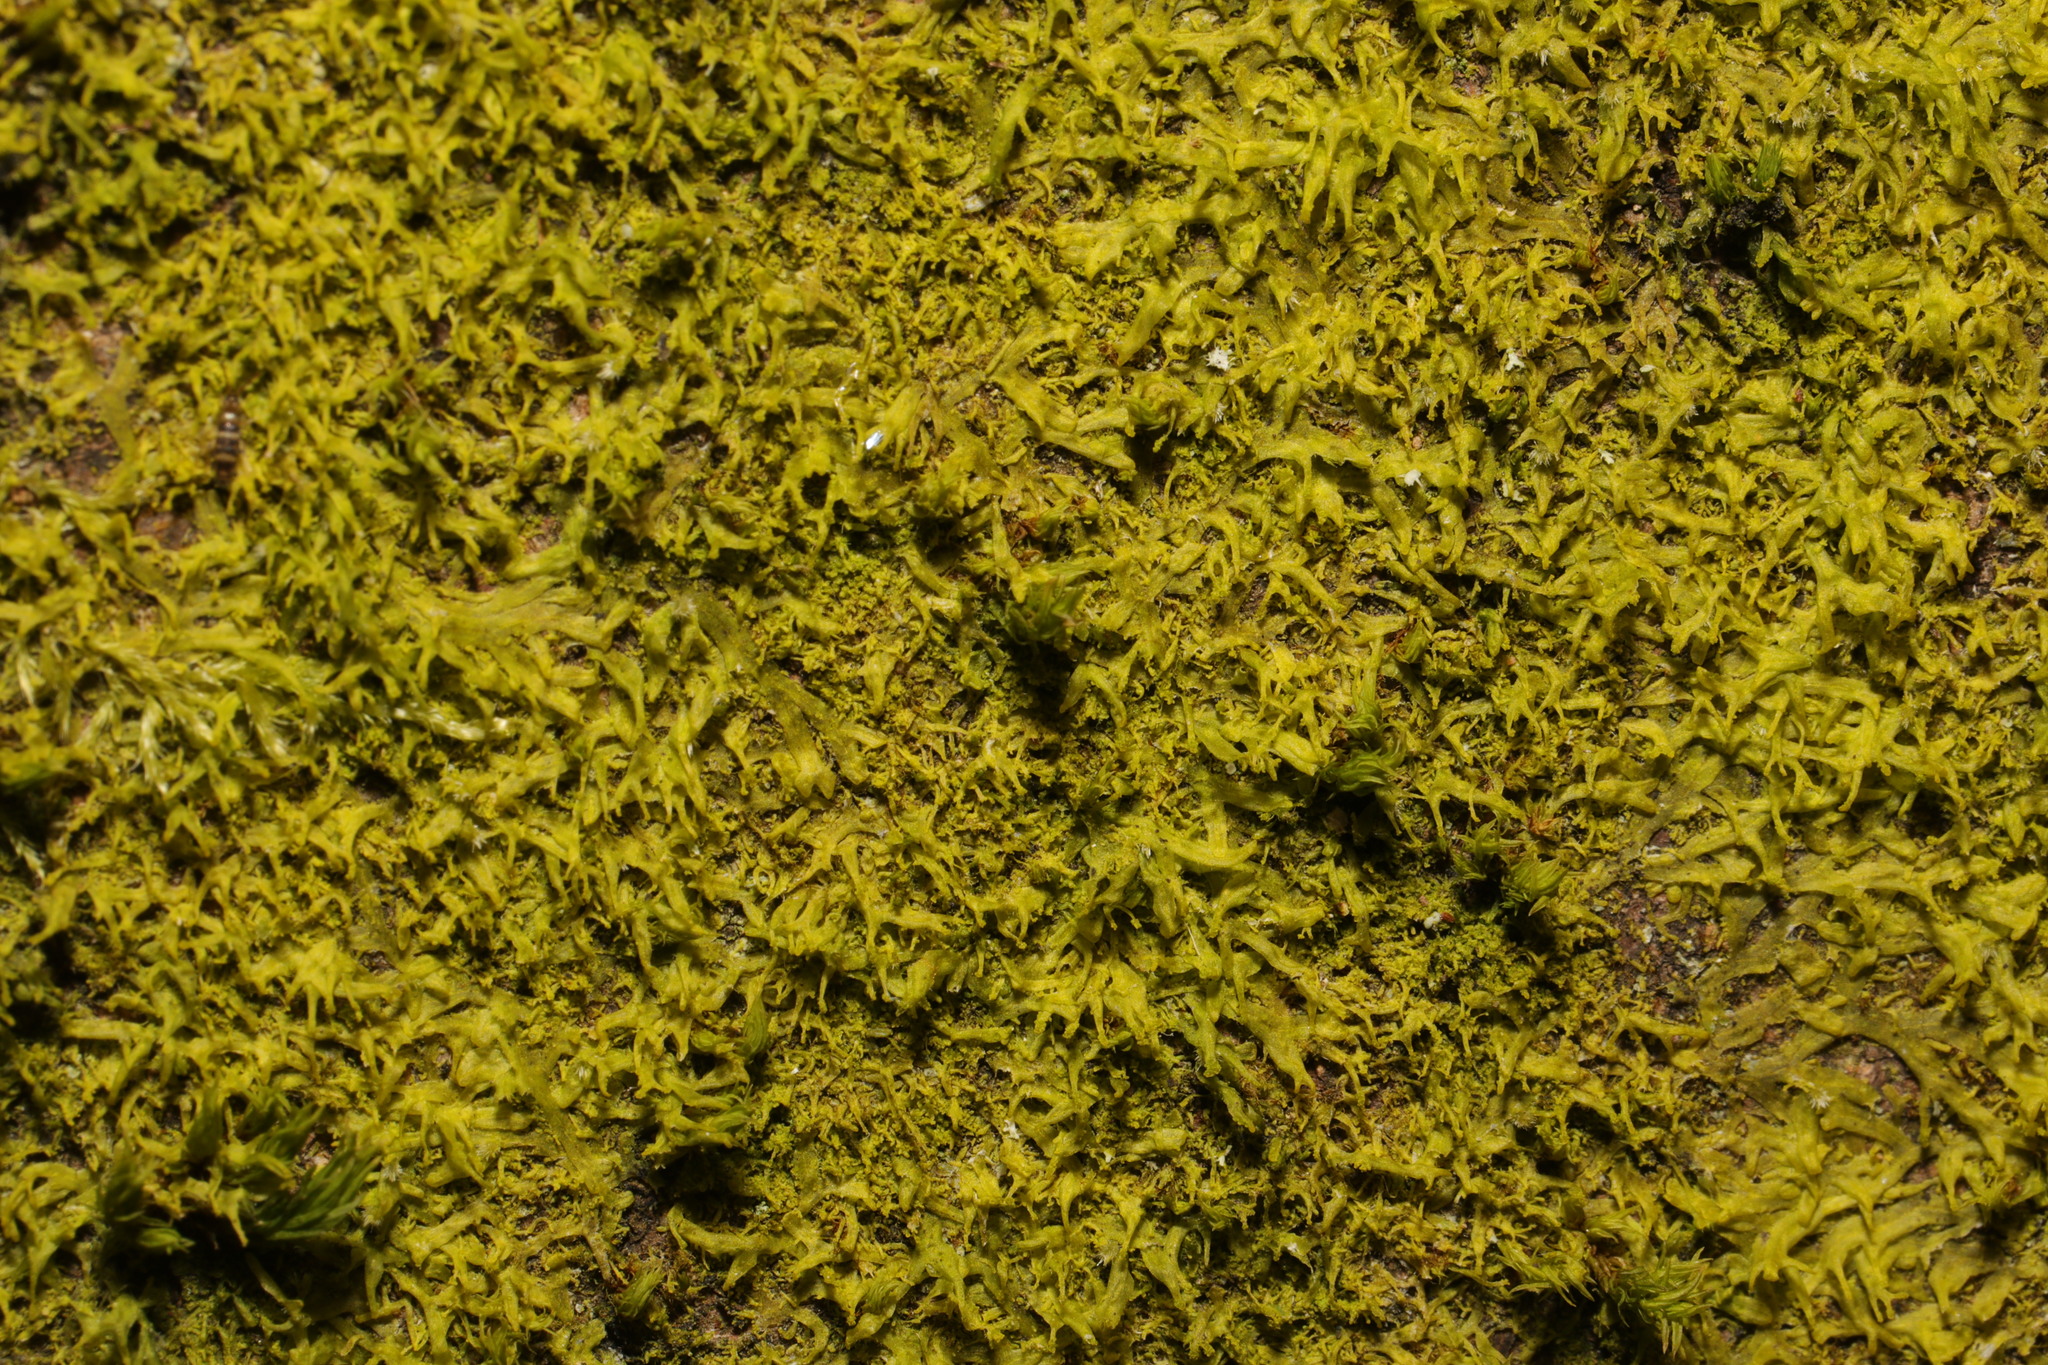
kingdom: Plantae
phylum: Marchantiophyta
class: Jungermanniopsida
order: Metzgeriales
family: Metzgeriaceae
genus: Metzgeria
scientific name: Metzgeria violacea
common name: Blueish veilwort
